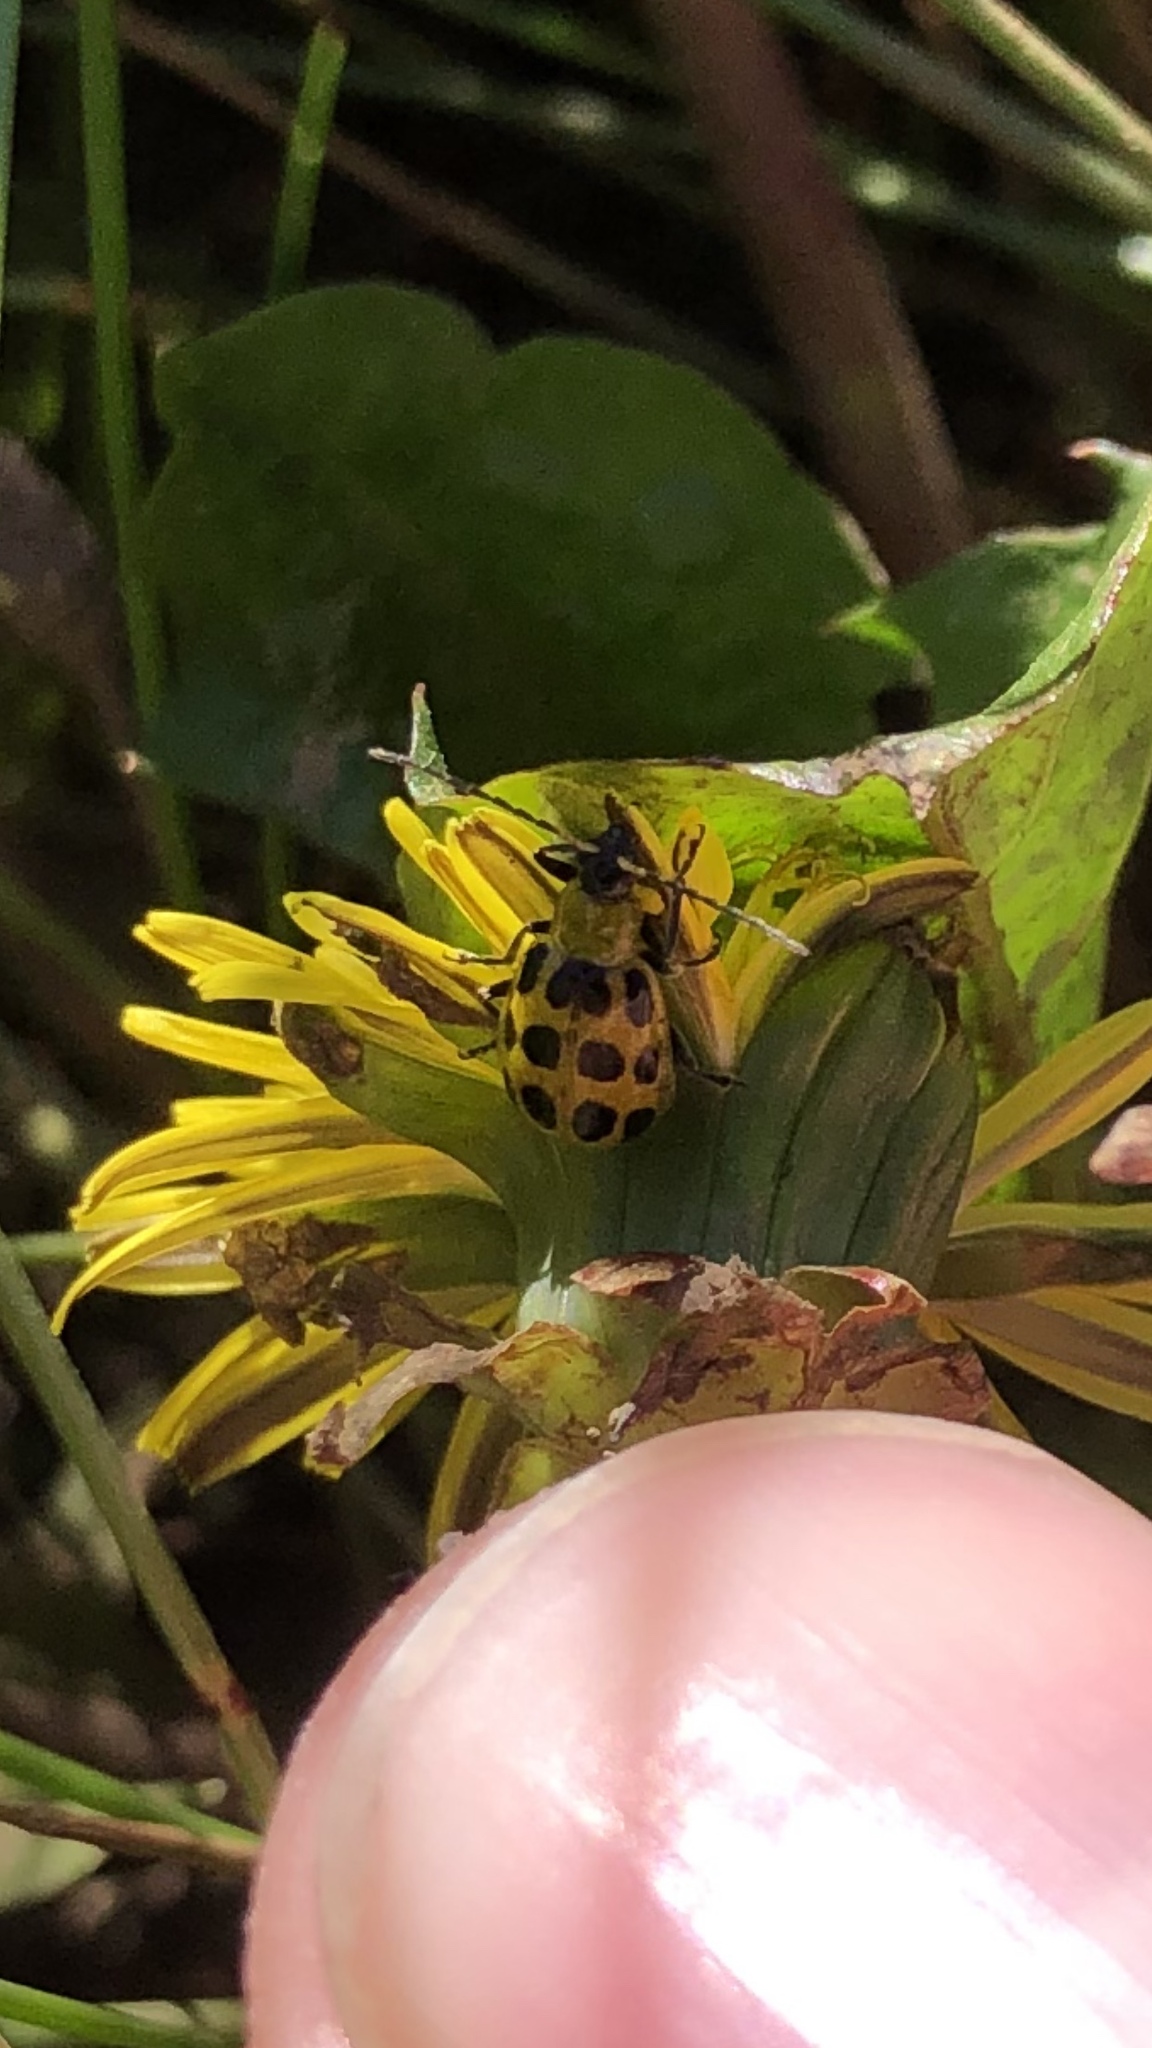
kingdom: Animalia
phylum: Arthropoda
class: Insecta
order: Coleoptera
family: Chrysomelidae
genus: Diabrotica
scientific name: Diabrotica undecimpunctata
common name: Spotted cucumber beetle
